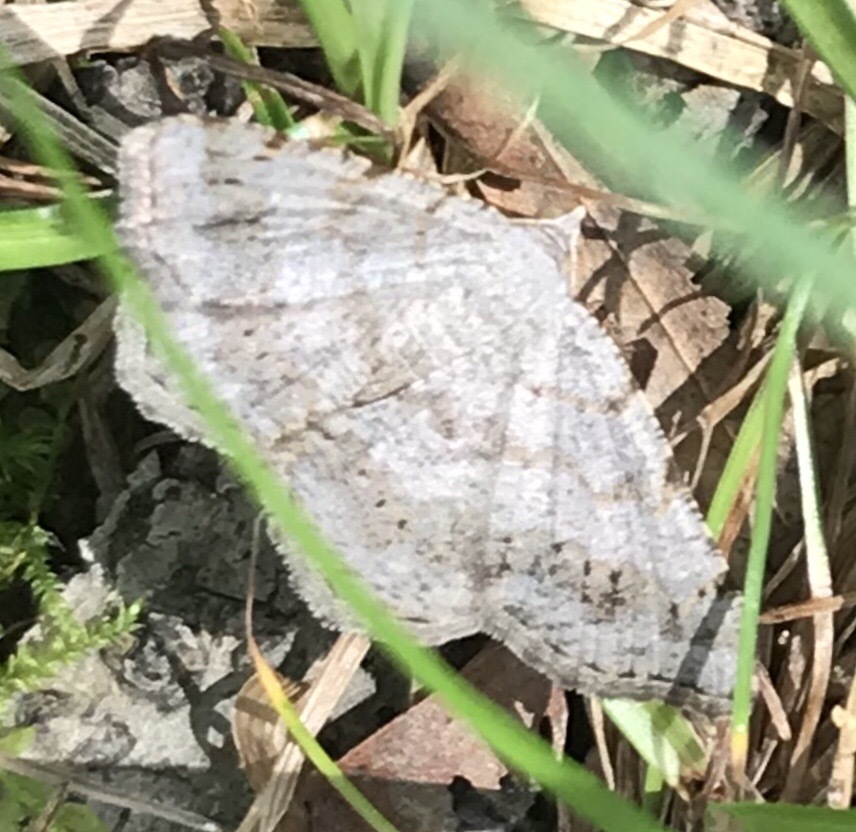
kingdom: Animalia
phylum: Arthropoda
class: Insecta
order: Lepidoptera
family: Geometridae
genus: Digrammia
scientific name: Digrammia ocellinata
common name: Faint-spotted angle
